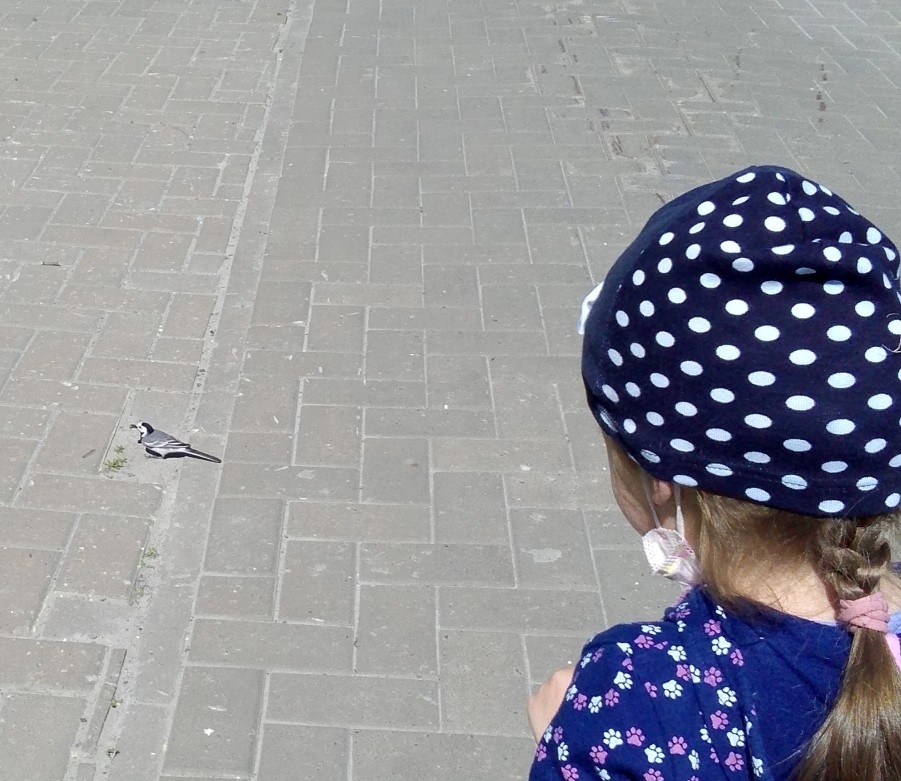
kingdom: Animalia
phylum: Chordata
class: Aves
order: Passeriformes
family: Motacillidae
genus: Motacilla
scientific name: Motacilla alba
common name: White wagtail
